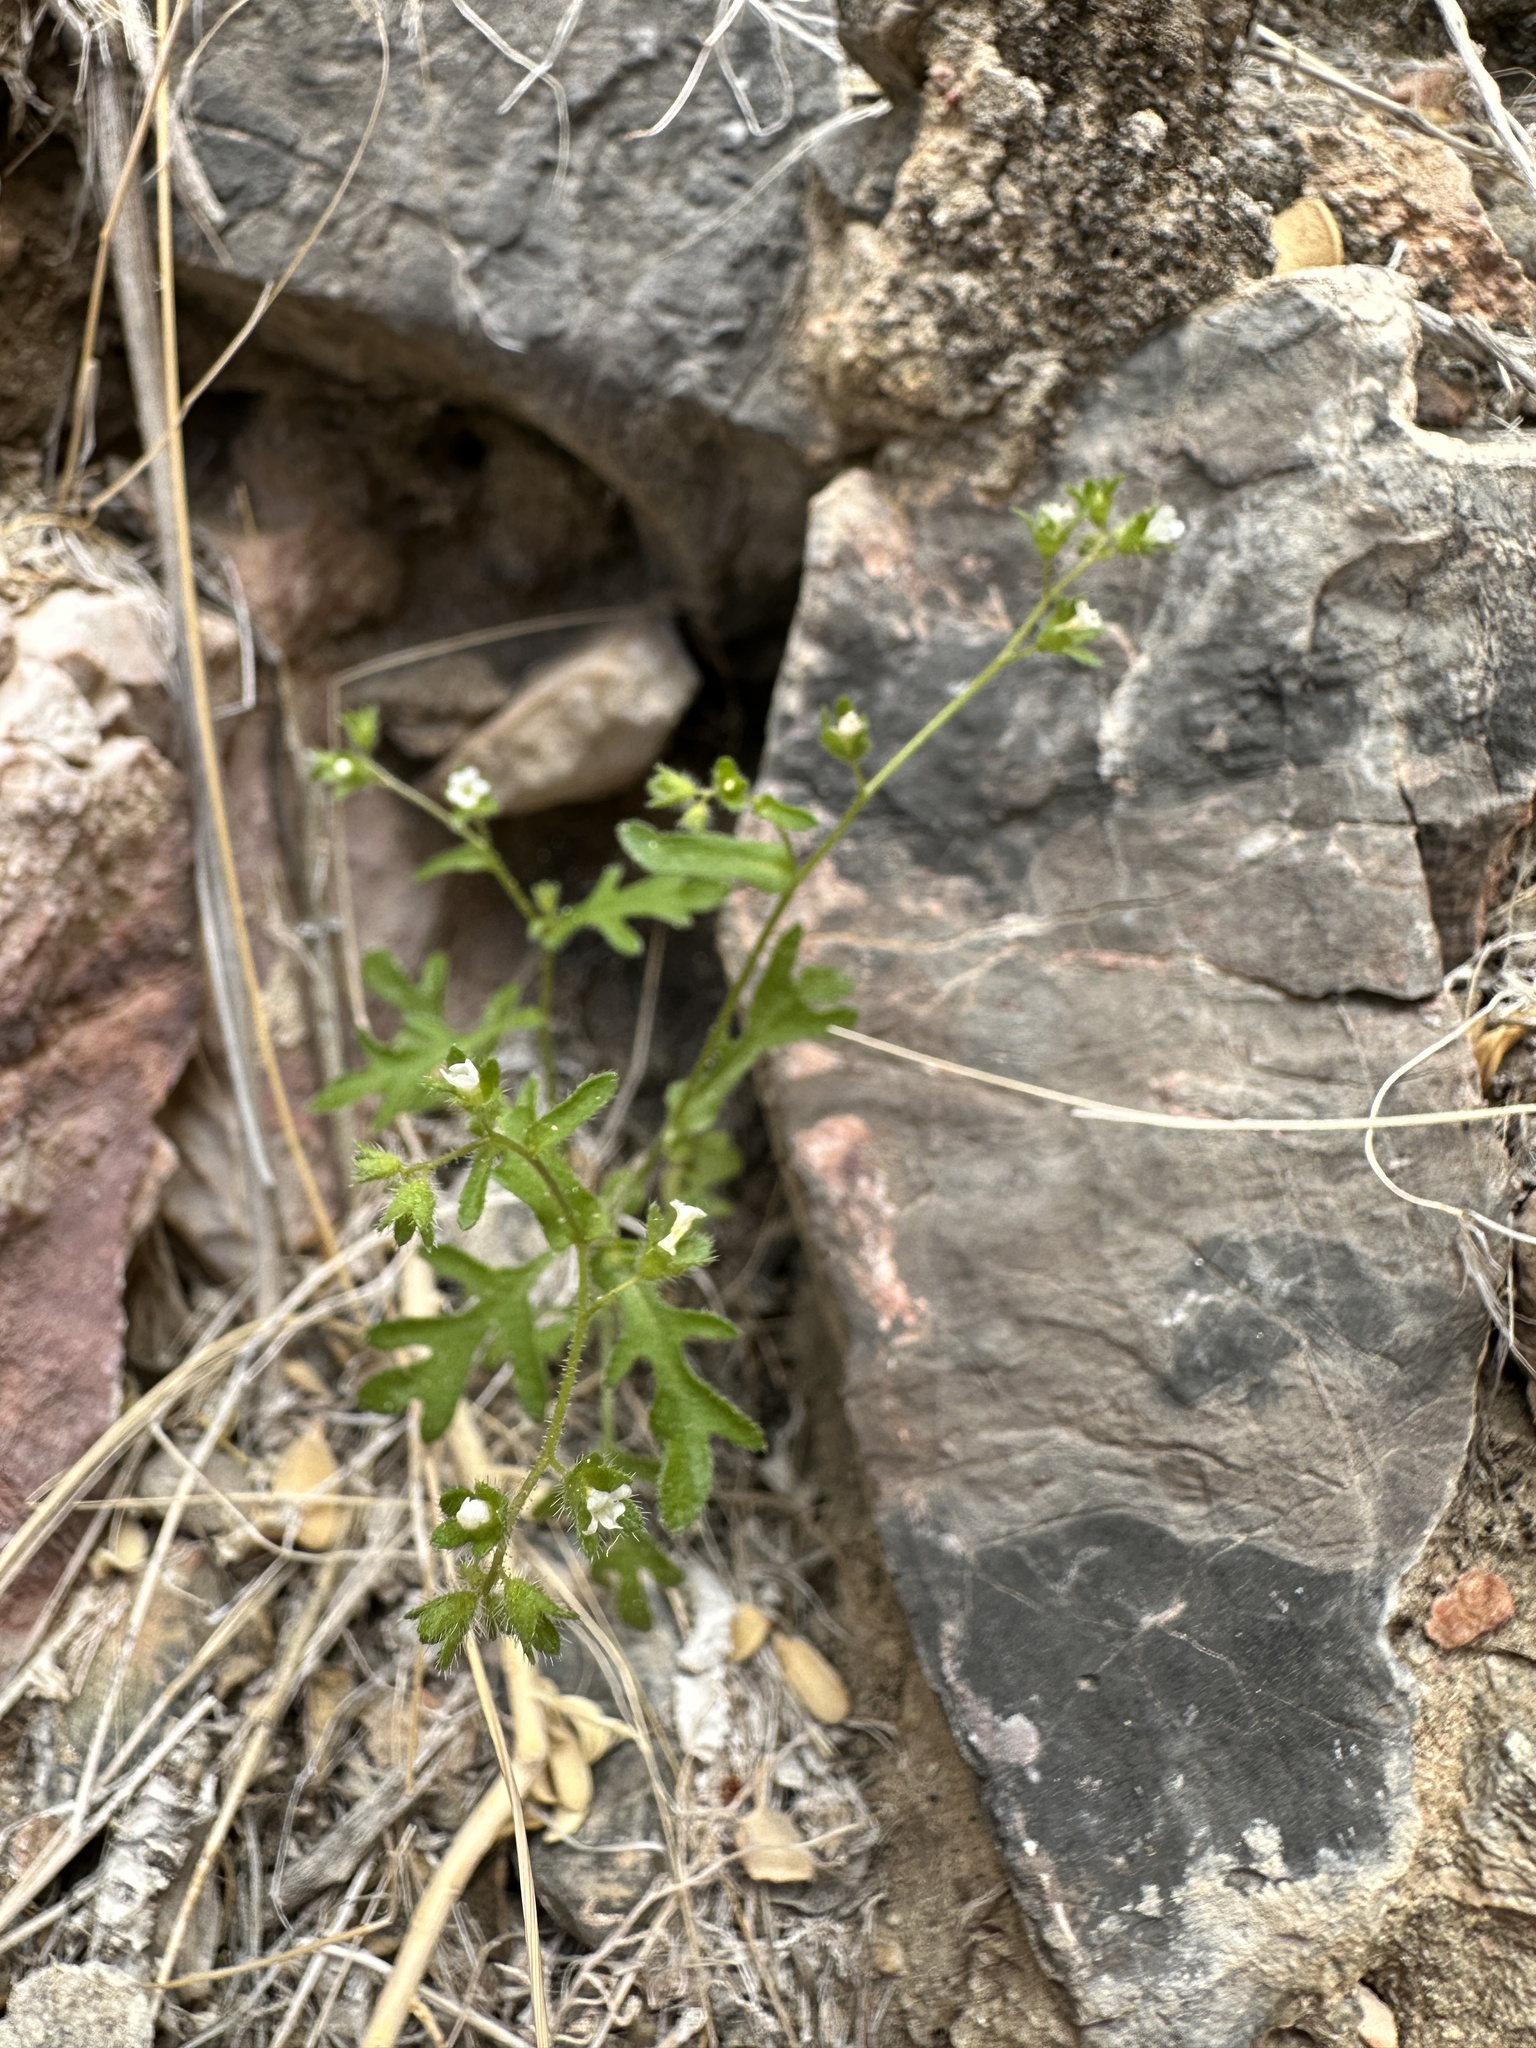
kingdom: Plantae
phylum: Tracheophyta
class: Magnoliopsida
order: Boraginales
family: Hydrophyllaceae
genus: Eucrypta
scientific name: Eucrypta micrantha
